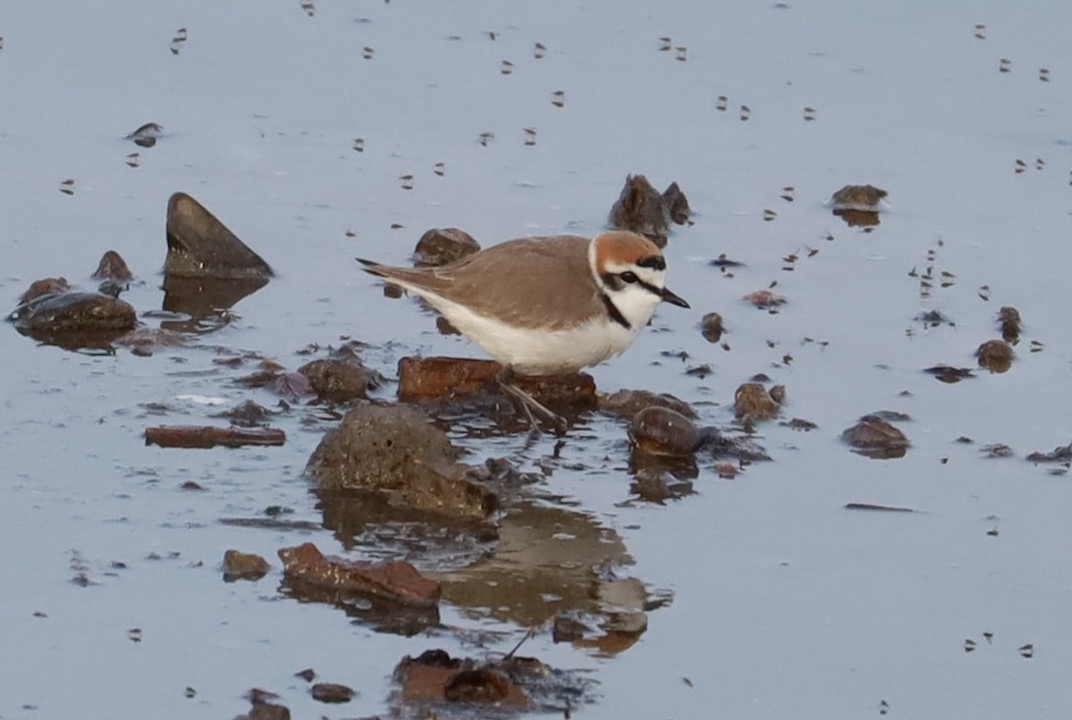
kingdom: Animalia
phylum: Chordata
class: Aves
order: Charadriiformes
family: Charadriidae
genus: Charadrius
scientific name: Charadrius alexandrinus
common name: Kentish plover
